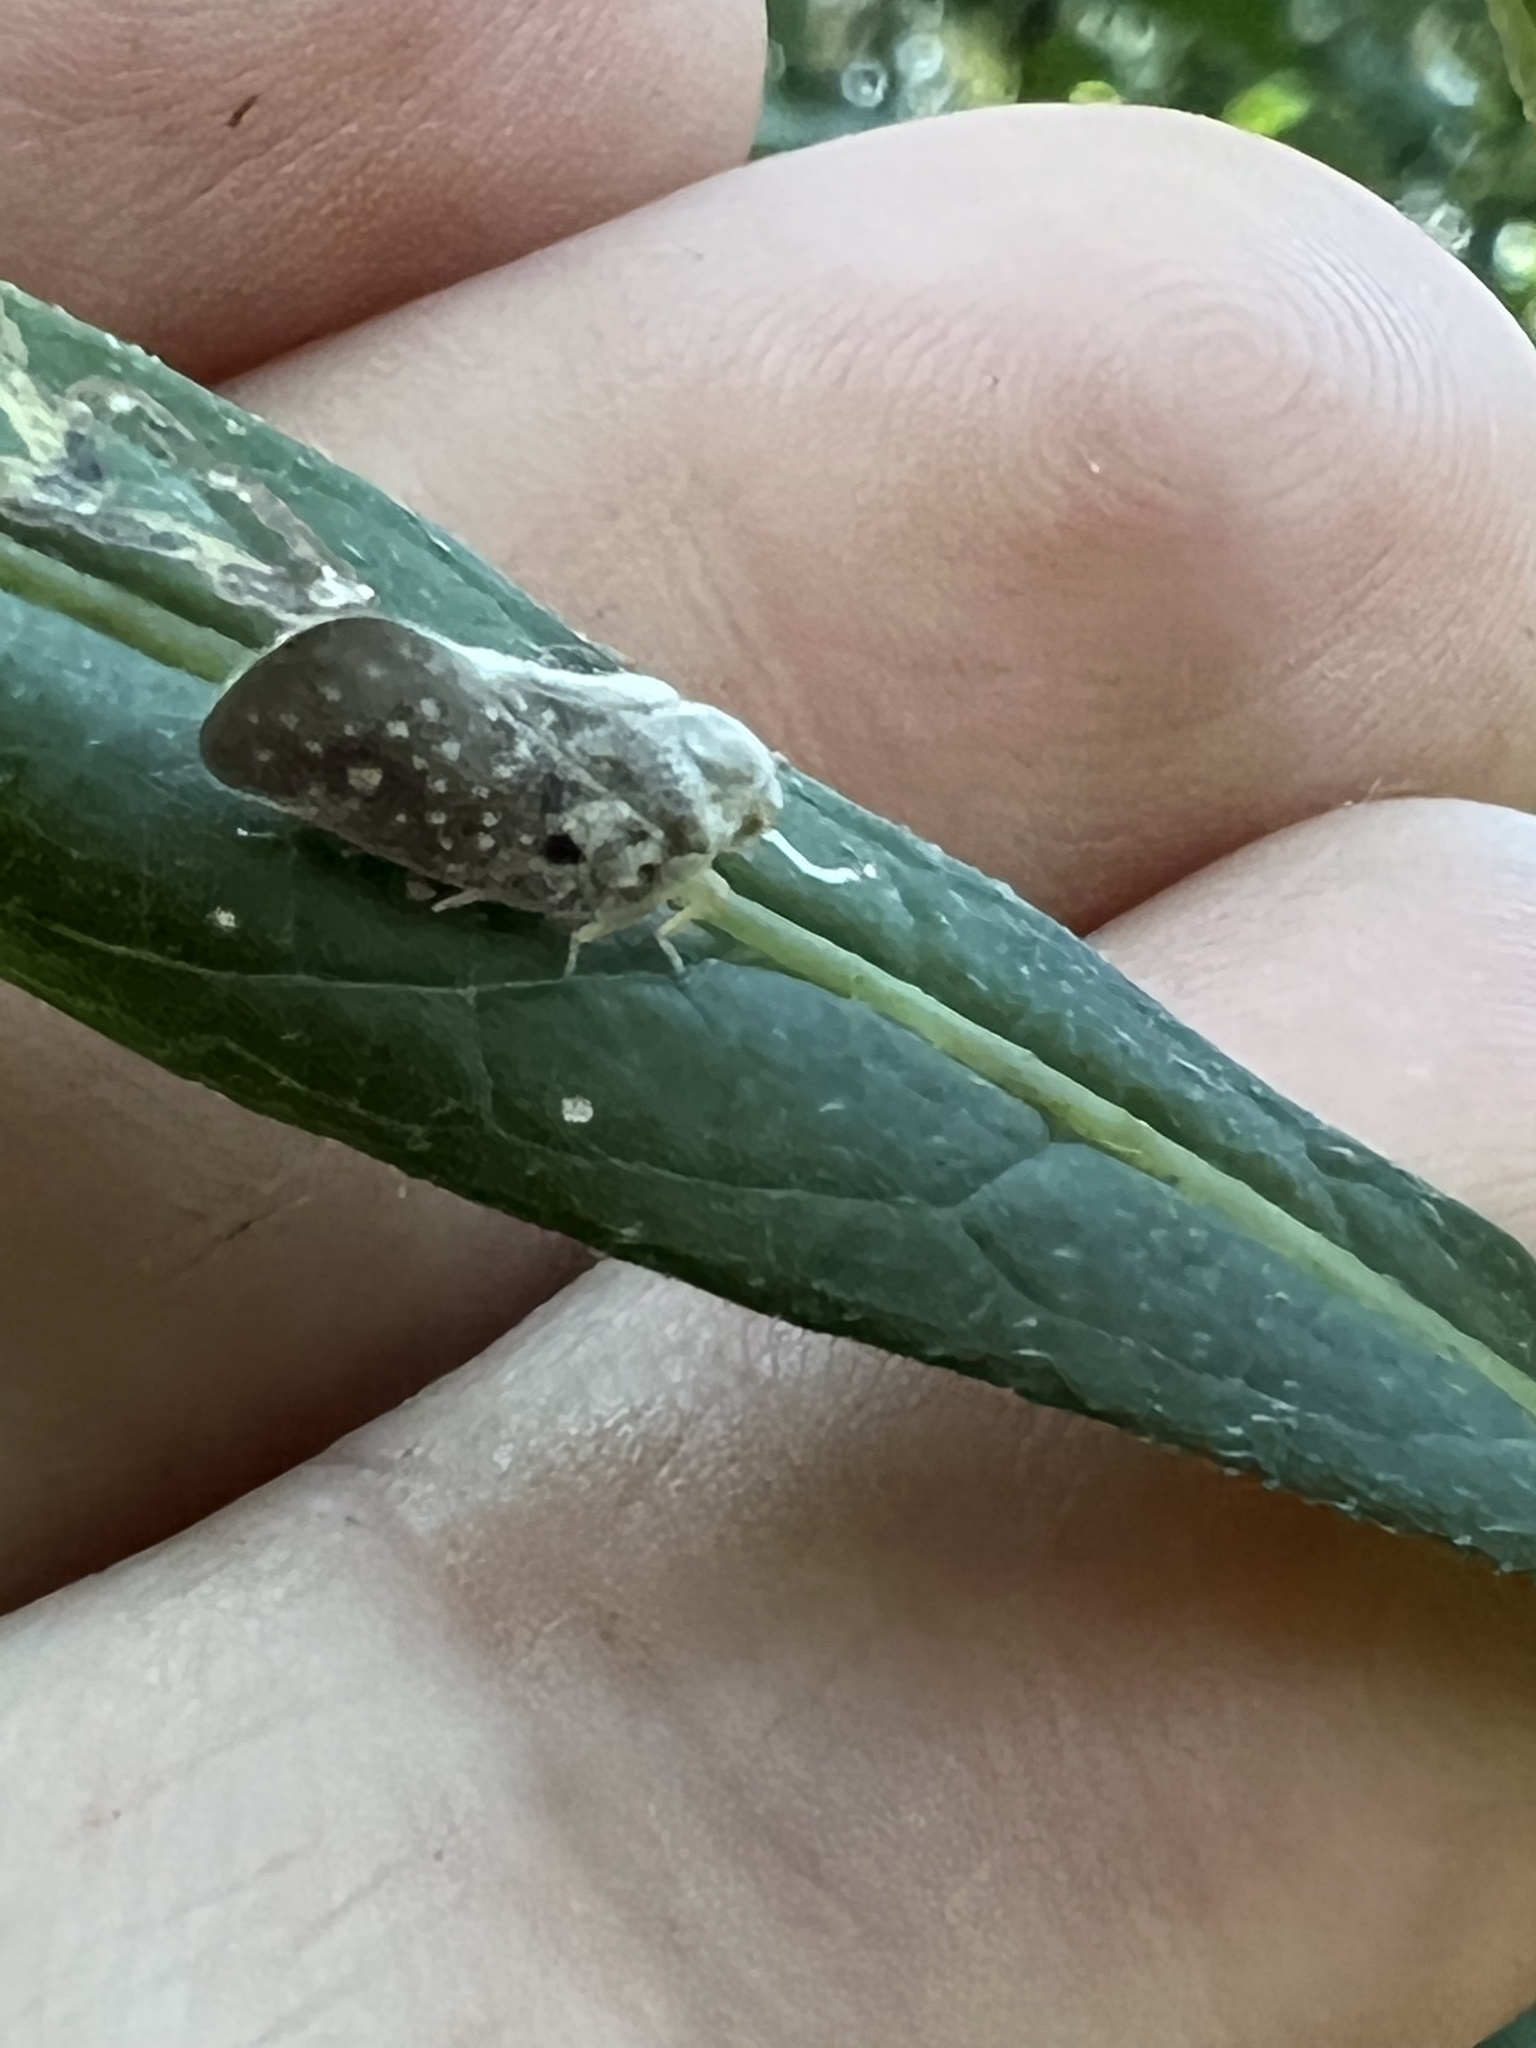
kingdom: Animalia
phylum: Arthropoda
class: Insecta
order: Hemiptera
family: Flatidae
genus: Metcalfa
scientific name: Metcalfa pruinosa
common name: Citrus flatid planthopper
